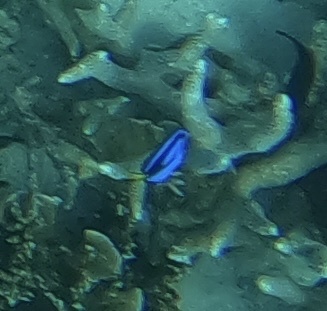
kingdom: Animalia
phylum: Chordata
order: Perciformes
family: Acanthuridae
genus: Paracanthurus
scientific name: Paracanthurus hepatus
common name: Palette surgeonfish
